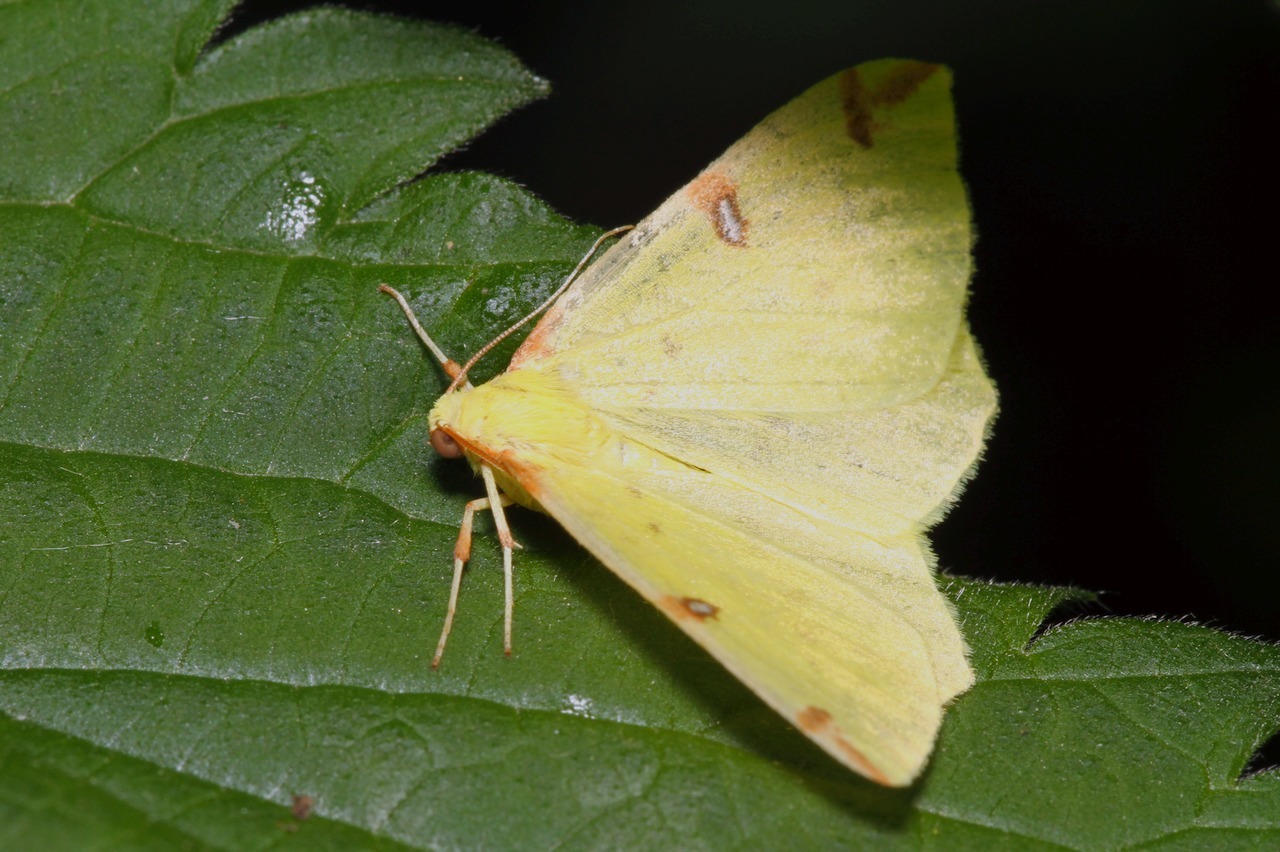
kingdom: Animalia
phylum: Arthropoda
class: Insecta
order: Lepidoptera
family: Geometridae
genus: Opisthograptis
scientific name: Opisthograptis luteolata
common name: Brimstone moth
